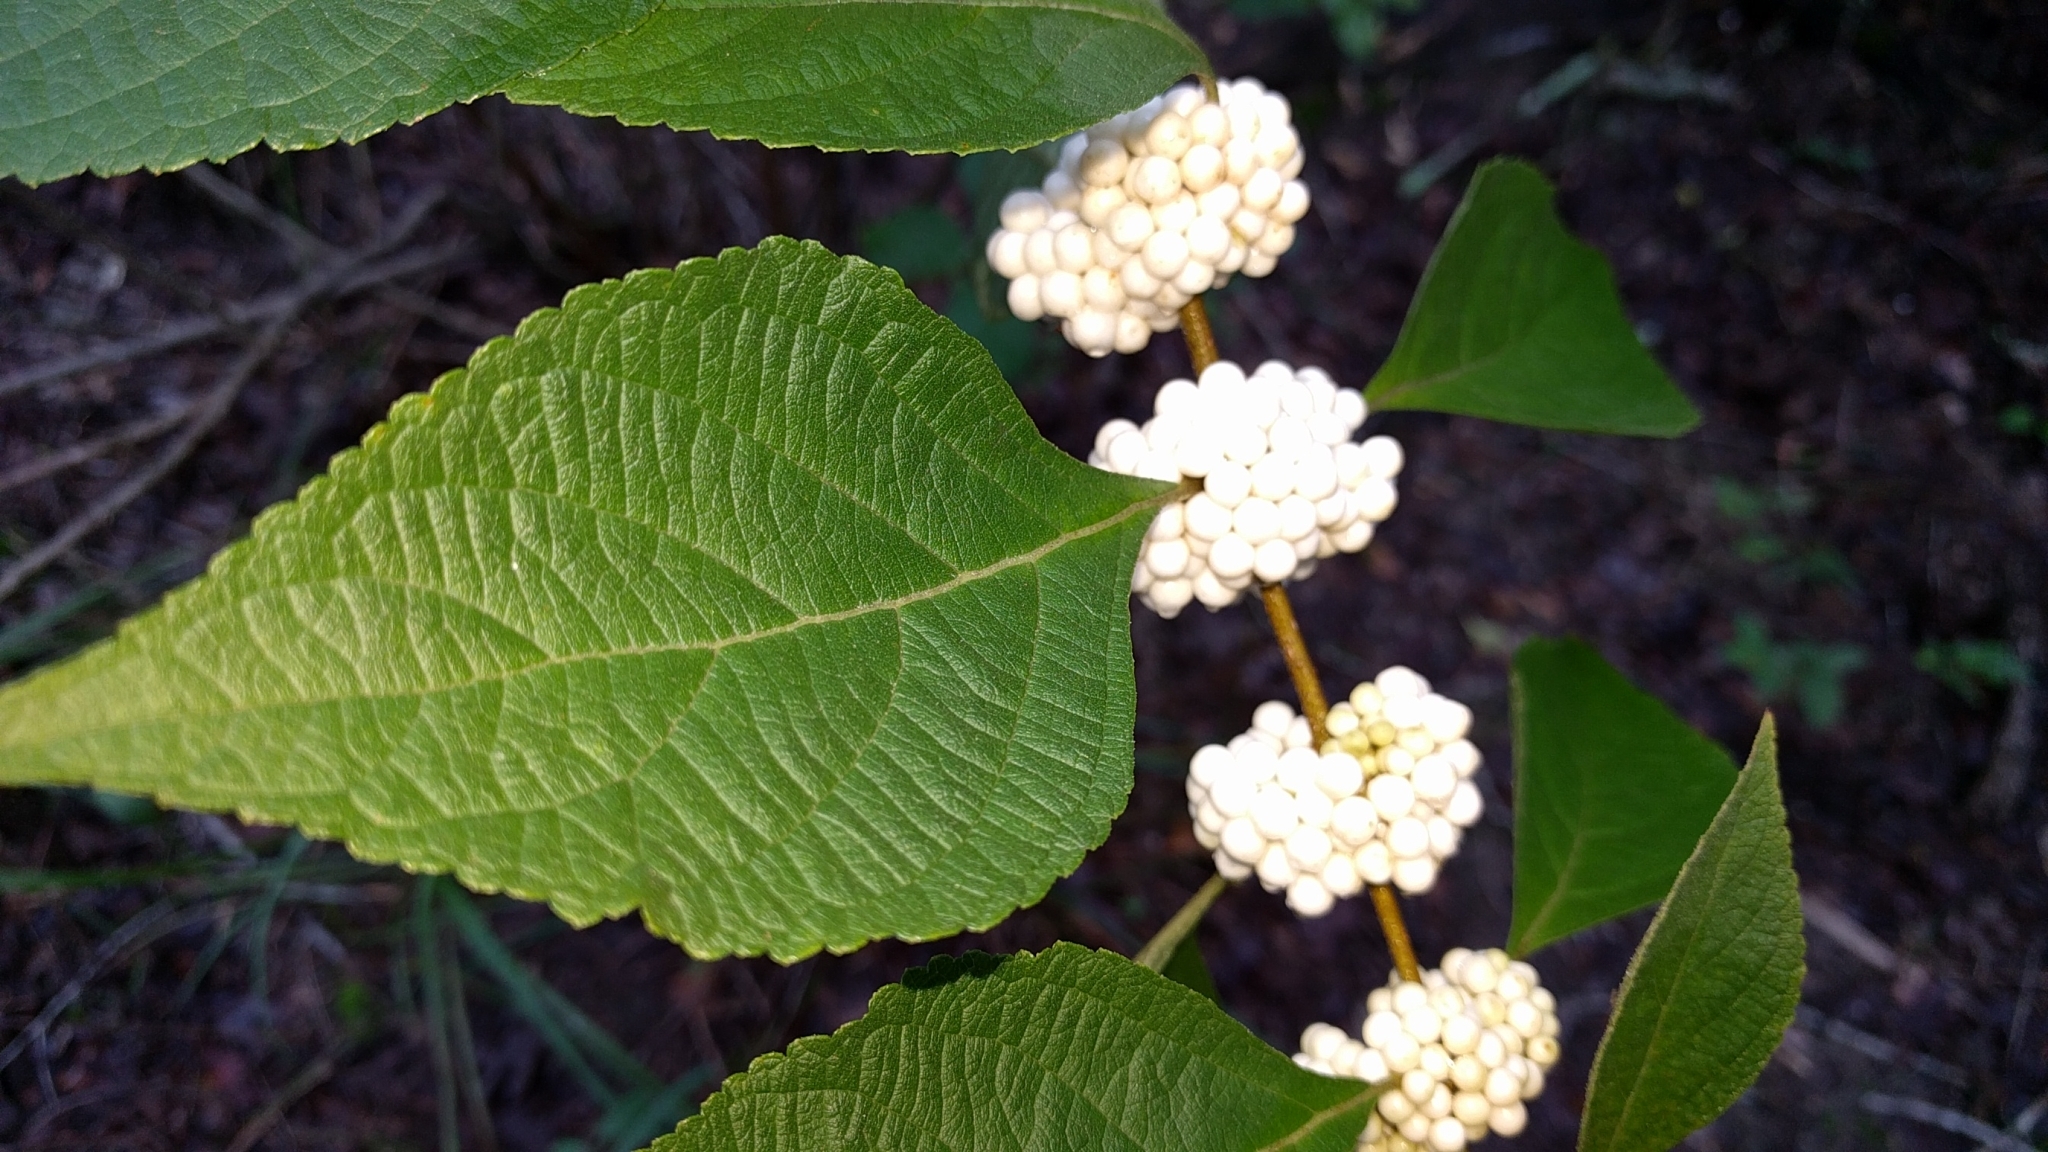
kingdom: Plantae
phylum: Tracheophyta
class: Magnoliopsida
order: Lamiales
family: Lamiaceae
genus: Callicarpa
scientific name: Callicarpa americana
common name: American beautyberry
